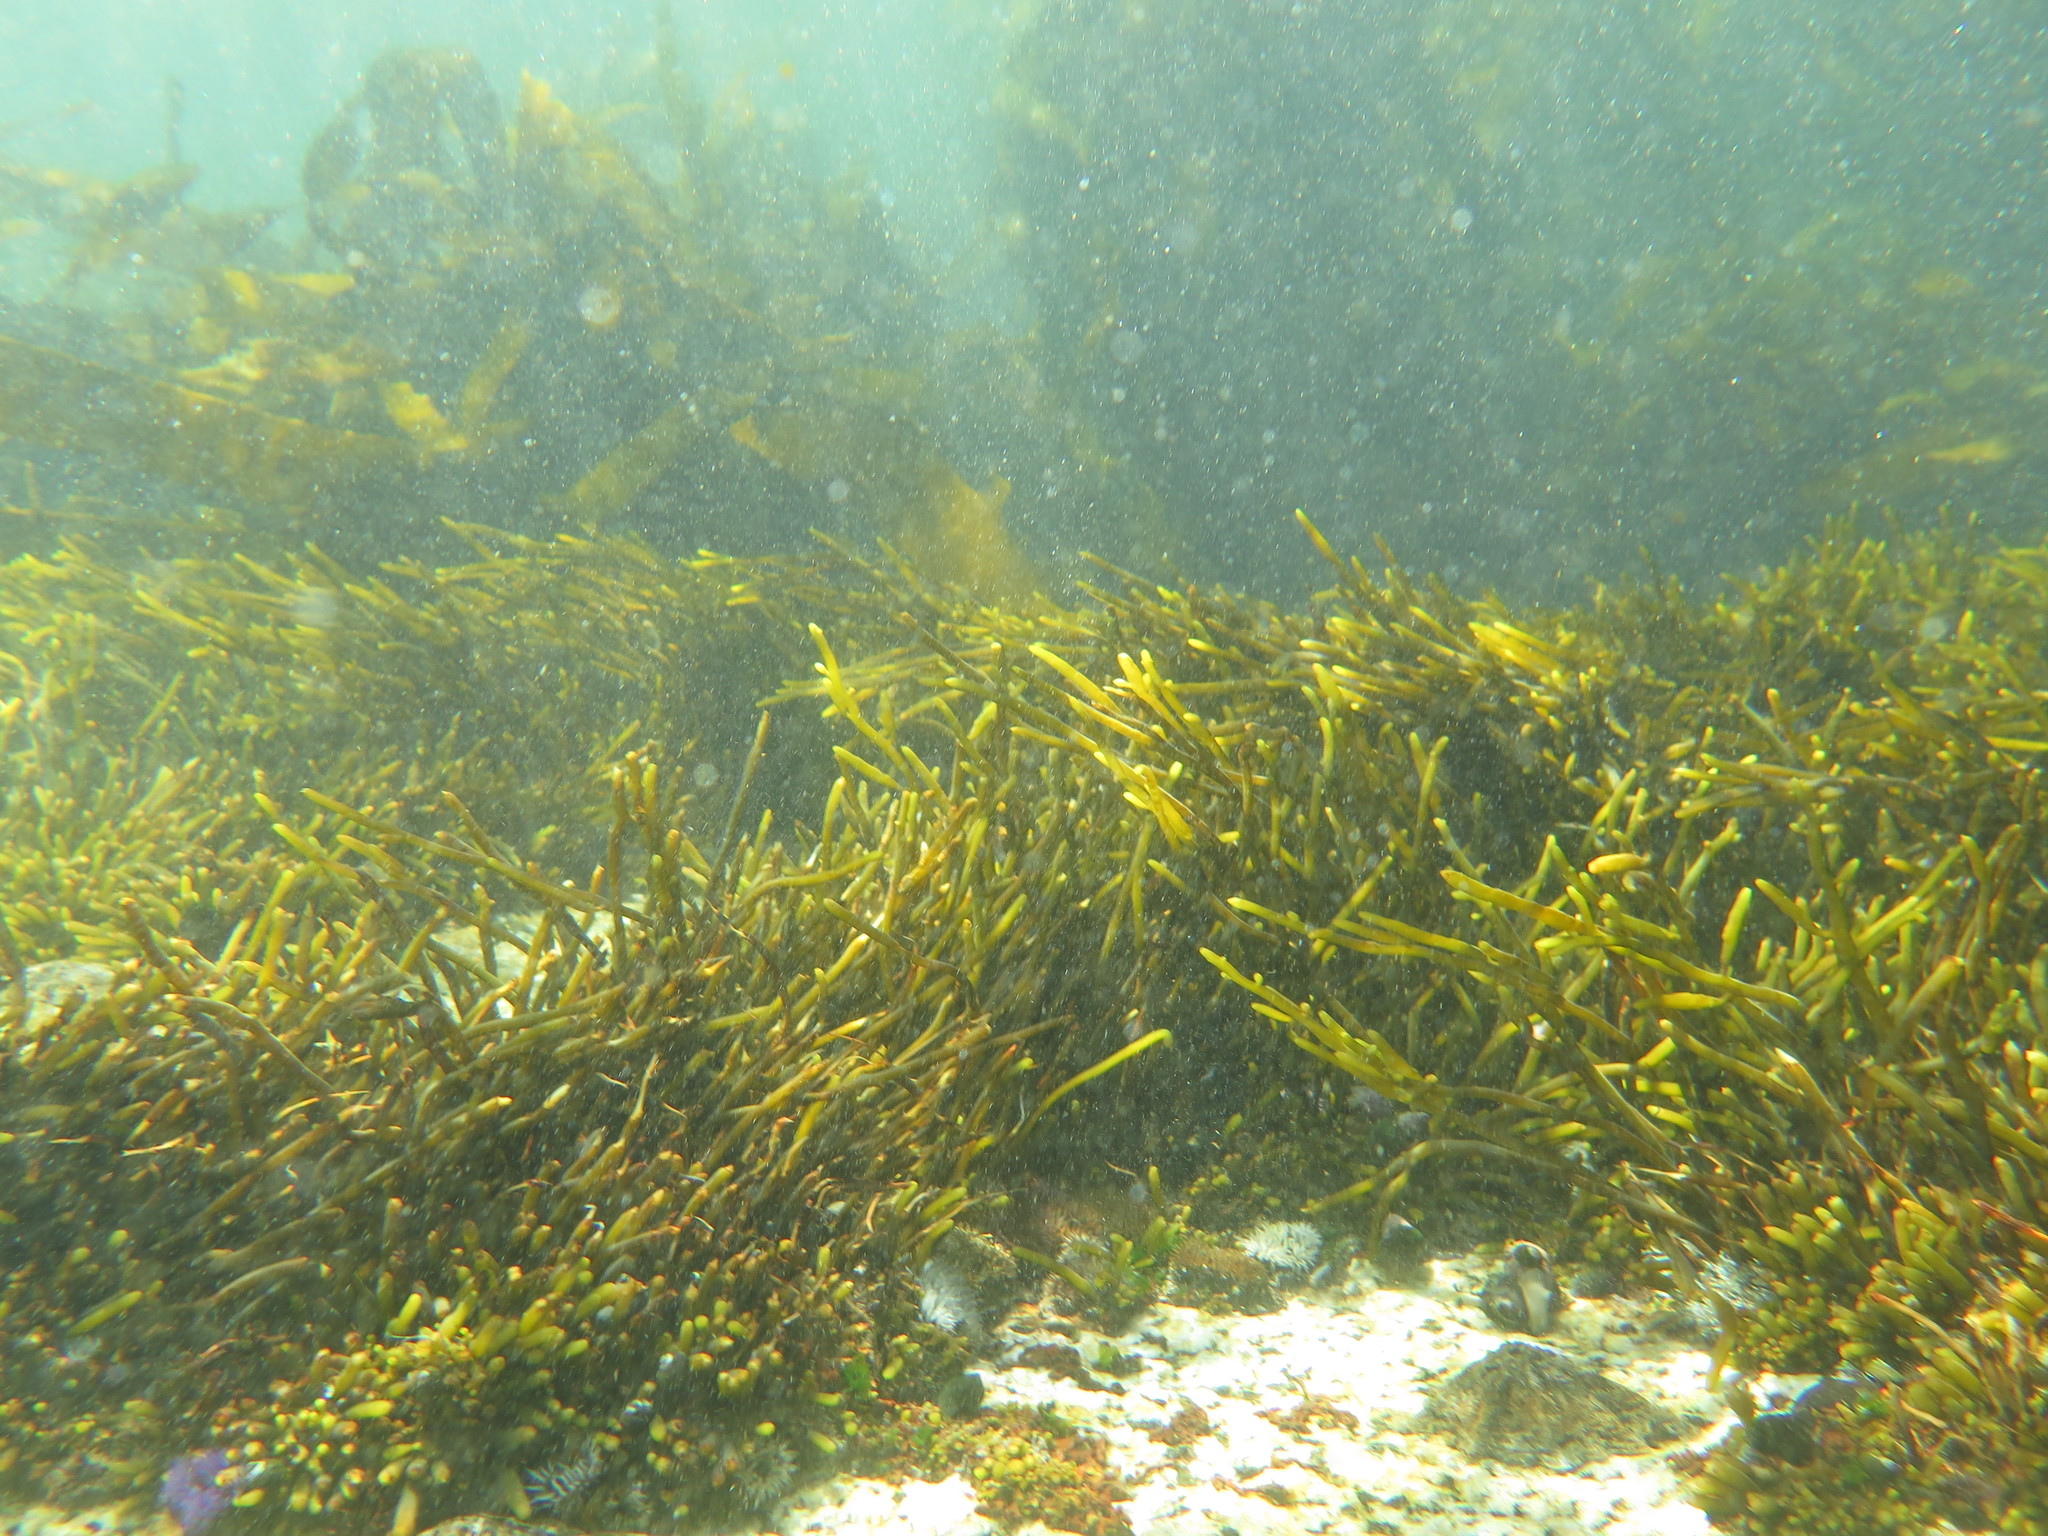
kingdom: Chromista
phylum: Ochrophyta
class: Phaeophyceae
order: Fucales
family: Sargassaceae
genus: Brassicophycus
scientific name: Brassicophycus
